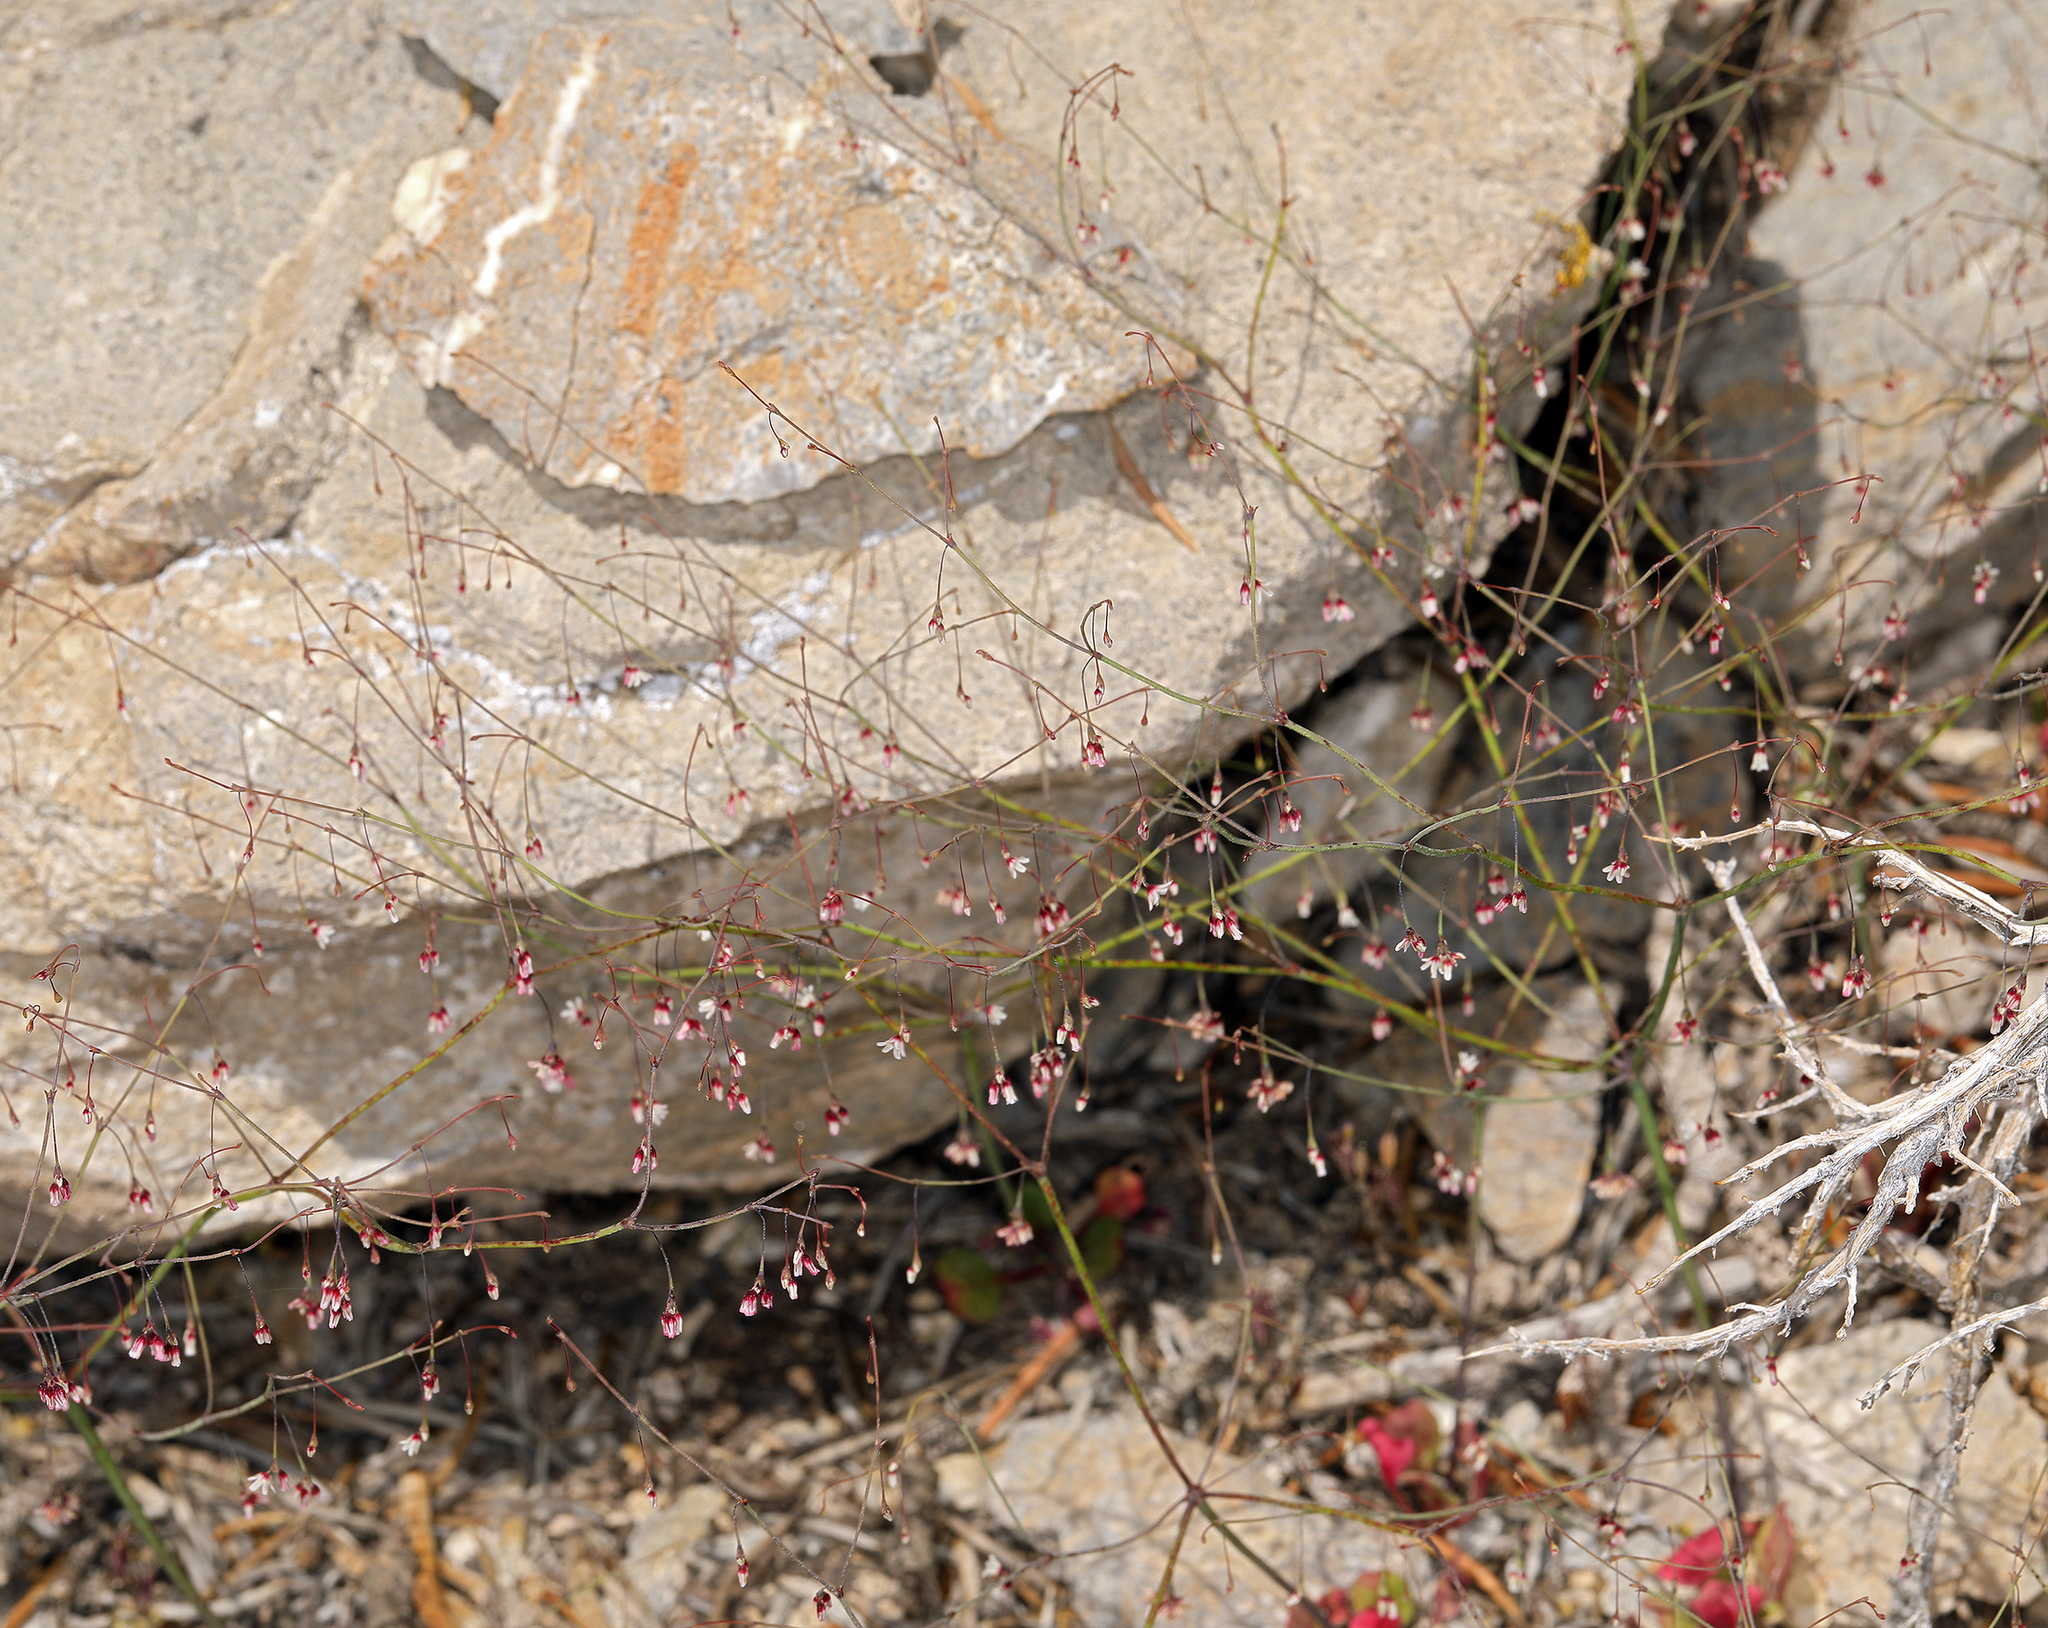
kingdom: Plantae
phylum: Tracheophyta
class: Magnoliopsida
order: Caryophyllales
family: Polygonaceae
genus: Eriogonum
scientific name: Eriogonum esmeraldense
